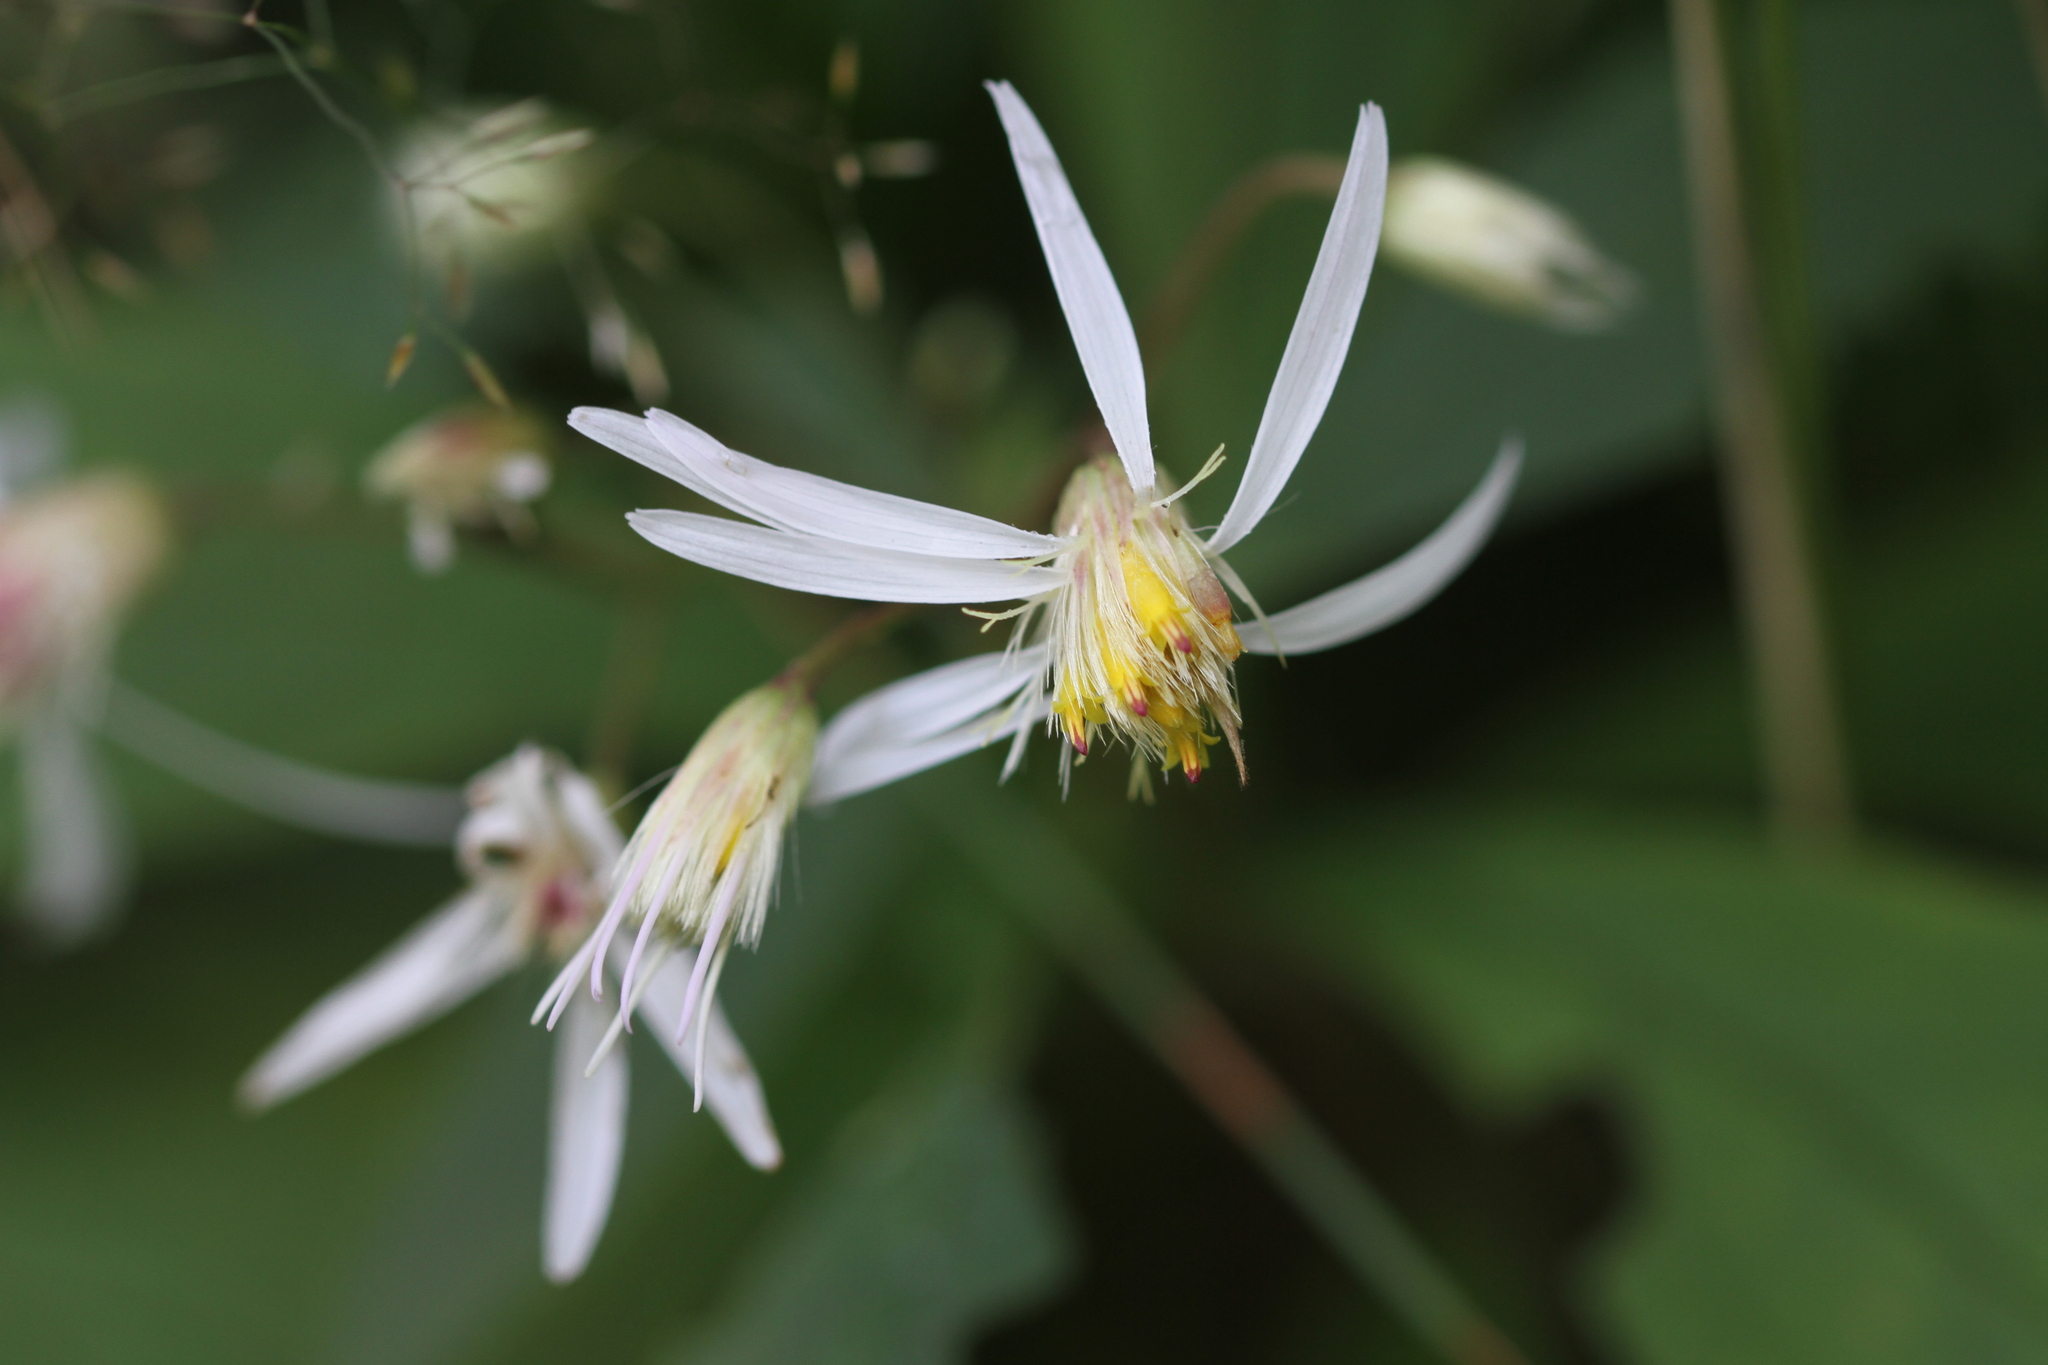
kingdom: Plantae
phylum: Tracheophyta
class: Magnoliopsida
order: Asterales
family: Asteraceae
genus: Oclemena
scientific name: Oclemena acuminata
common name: Mountain aster
